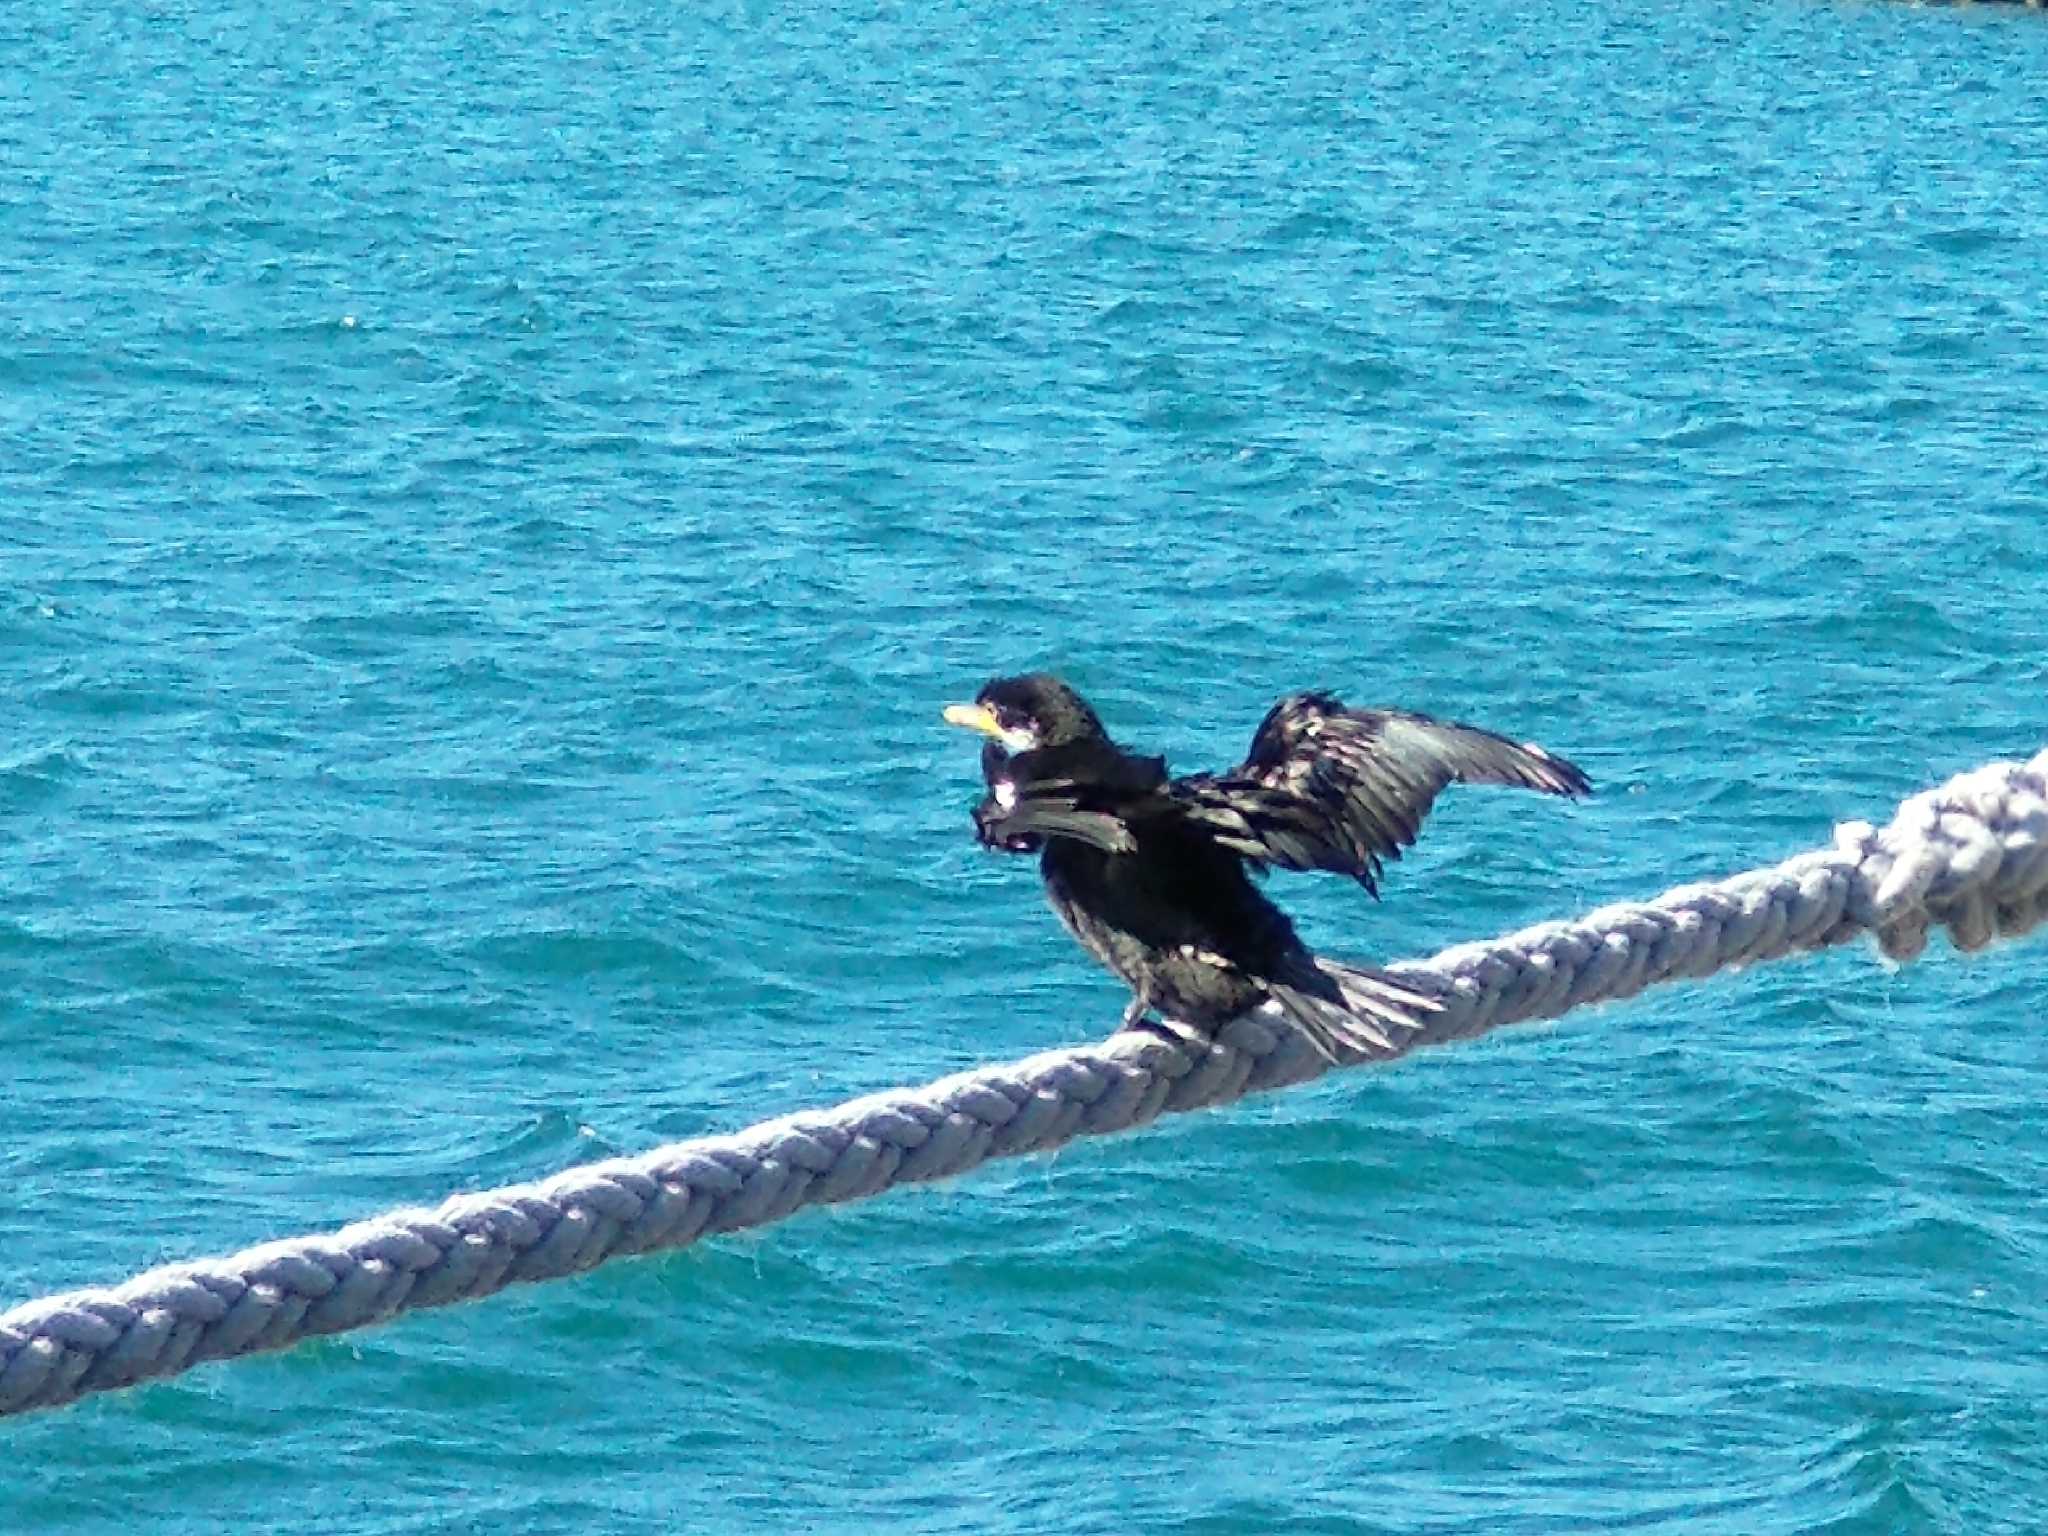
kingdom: Animalia
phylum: Chordata
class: Aves
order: Suliformes
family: Phalacrocoracidae
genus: Microcarbo
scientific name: Microcarbo melanoleucos
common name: Little pied cormorant
